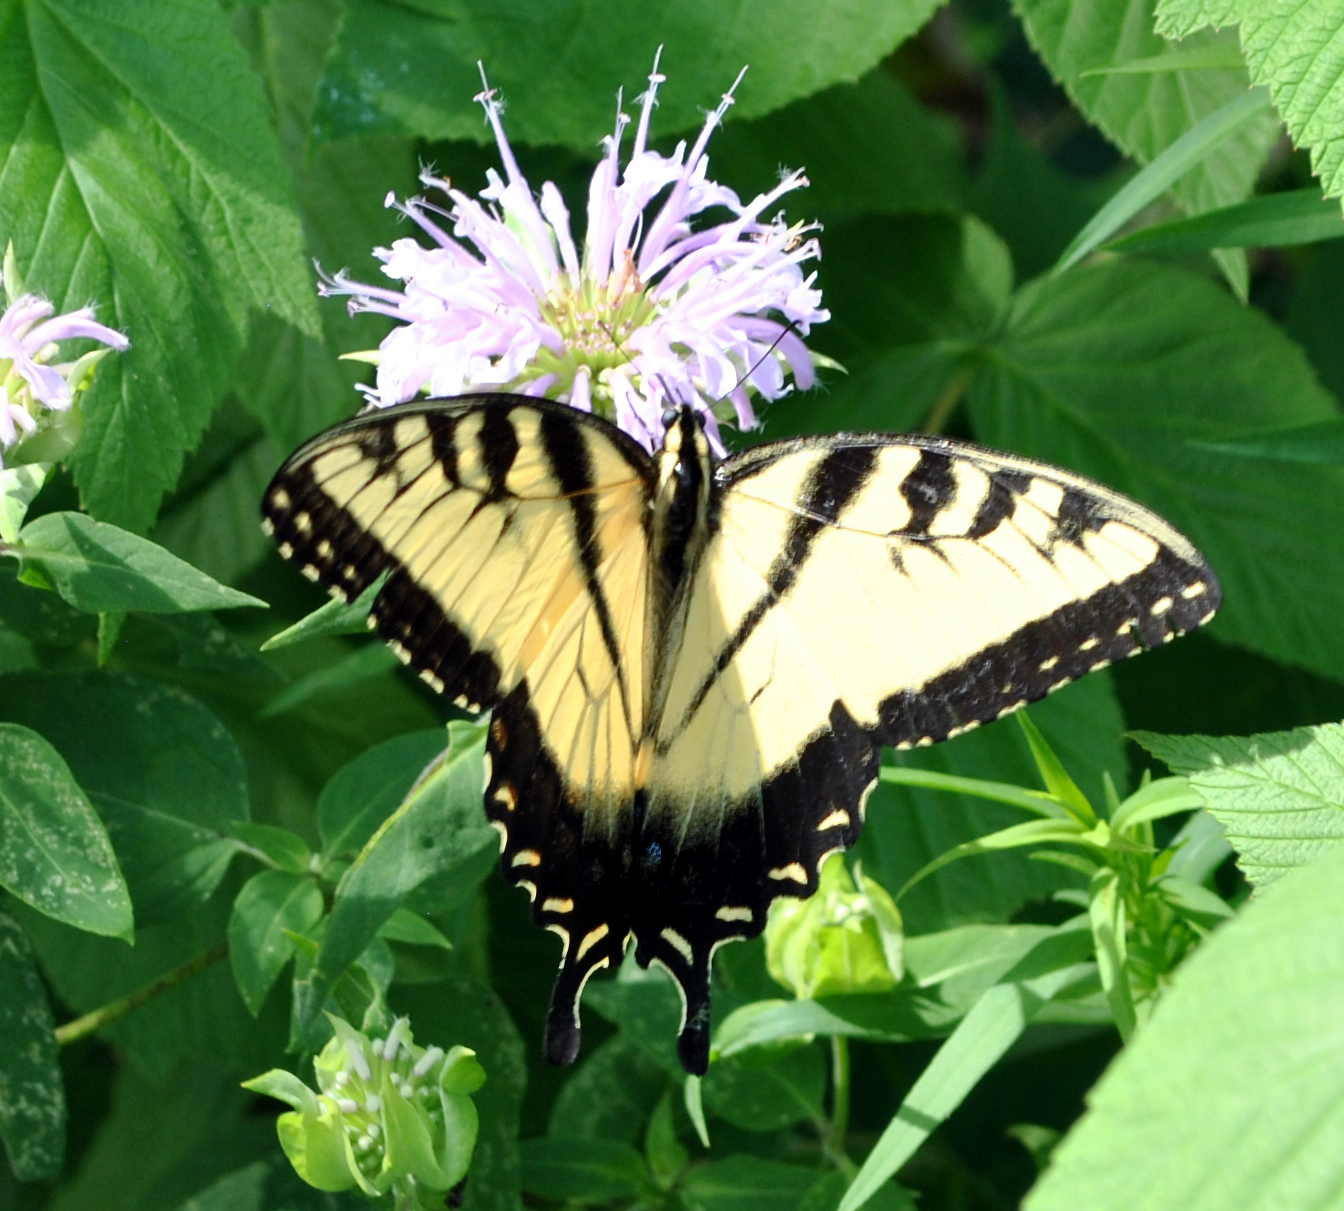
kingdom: Animalia
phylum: Arthropoda
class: Insecta
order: Lepidoptera
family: Papilionidae
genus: Papilio
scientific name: Papilio glaucus
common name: Tiger swallowtail
